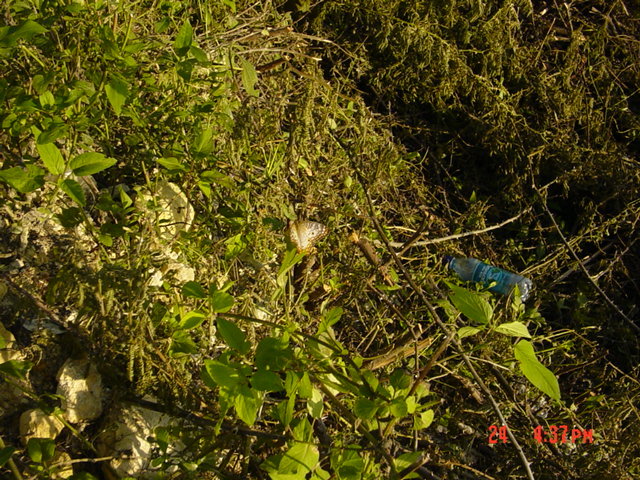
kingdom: Animalia
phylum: Arthropoda
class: Insecta
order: Lepidoptera
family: Nymphalidae
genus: Anartia
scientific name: Anartia jatrophae
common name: White peacock
